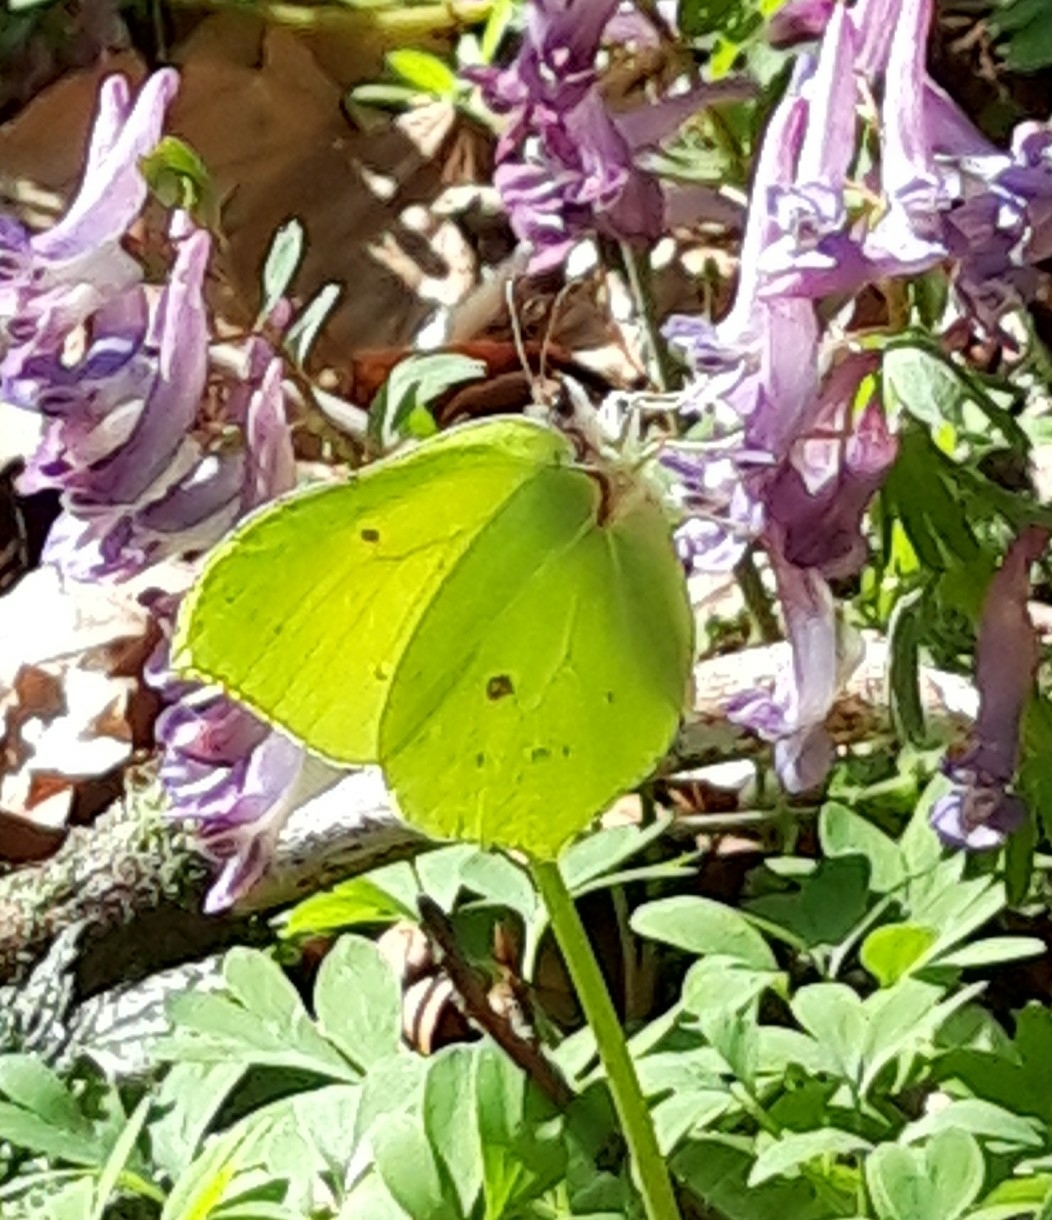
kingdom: Animalia
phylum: Arthropoda
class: Insecta
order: Lepidoptera
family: Pieridae
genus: Gonepteryx
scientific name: Gonepteryx rhamni
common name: Brimstone
